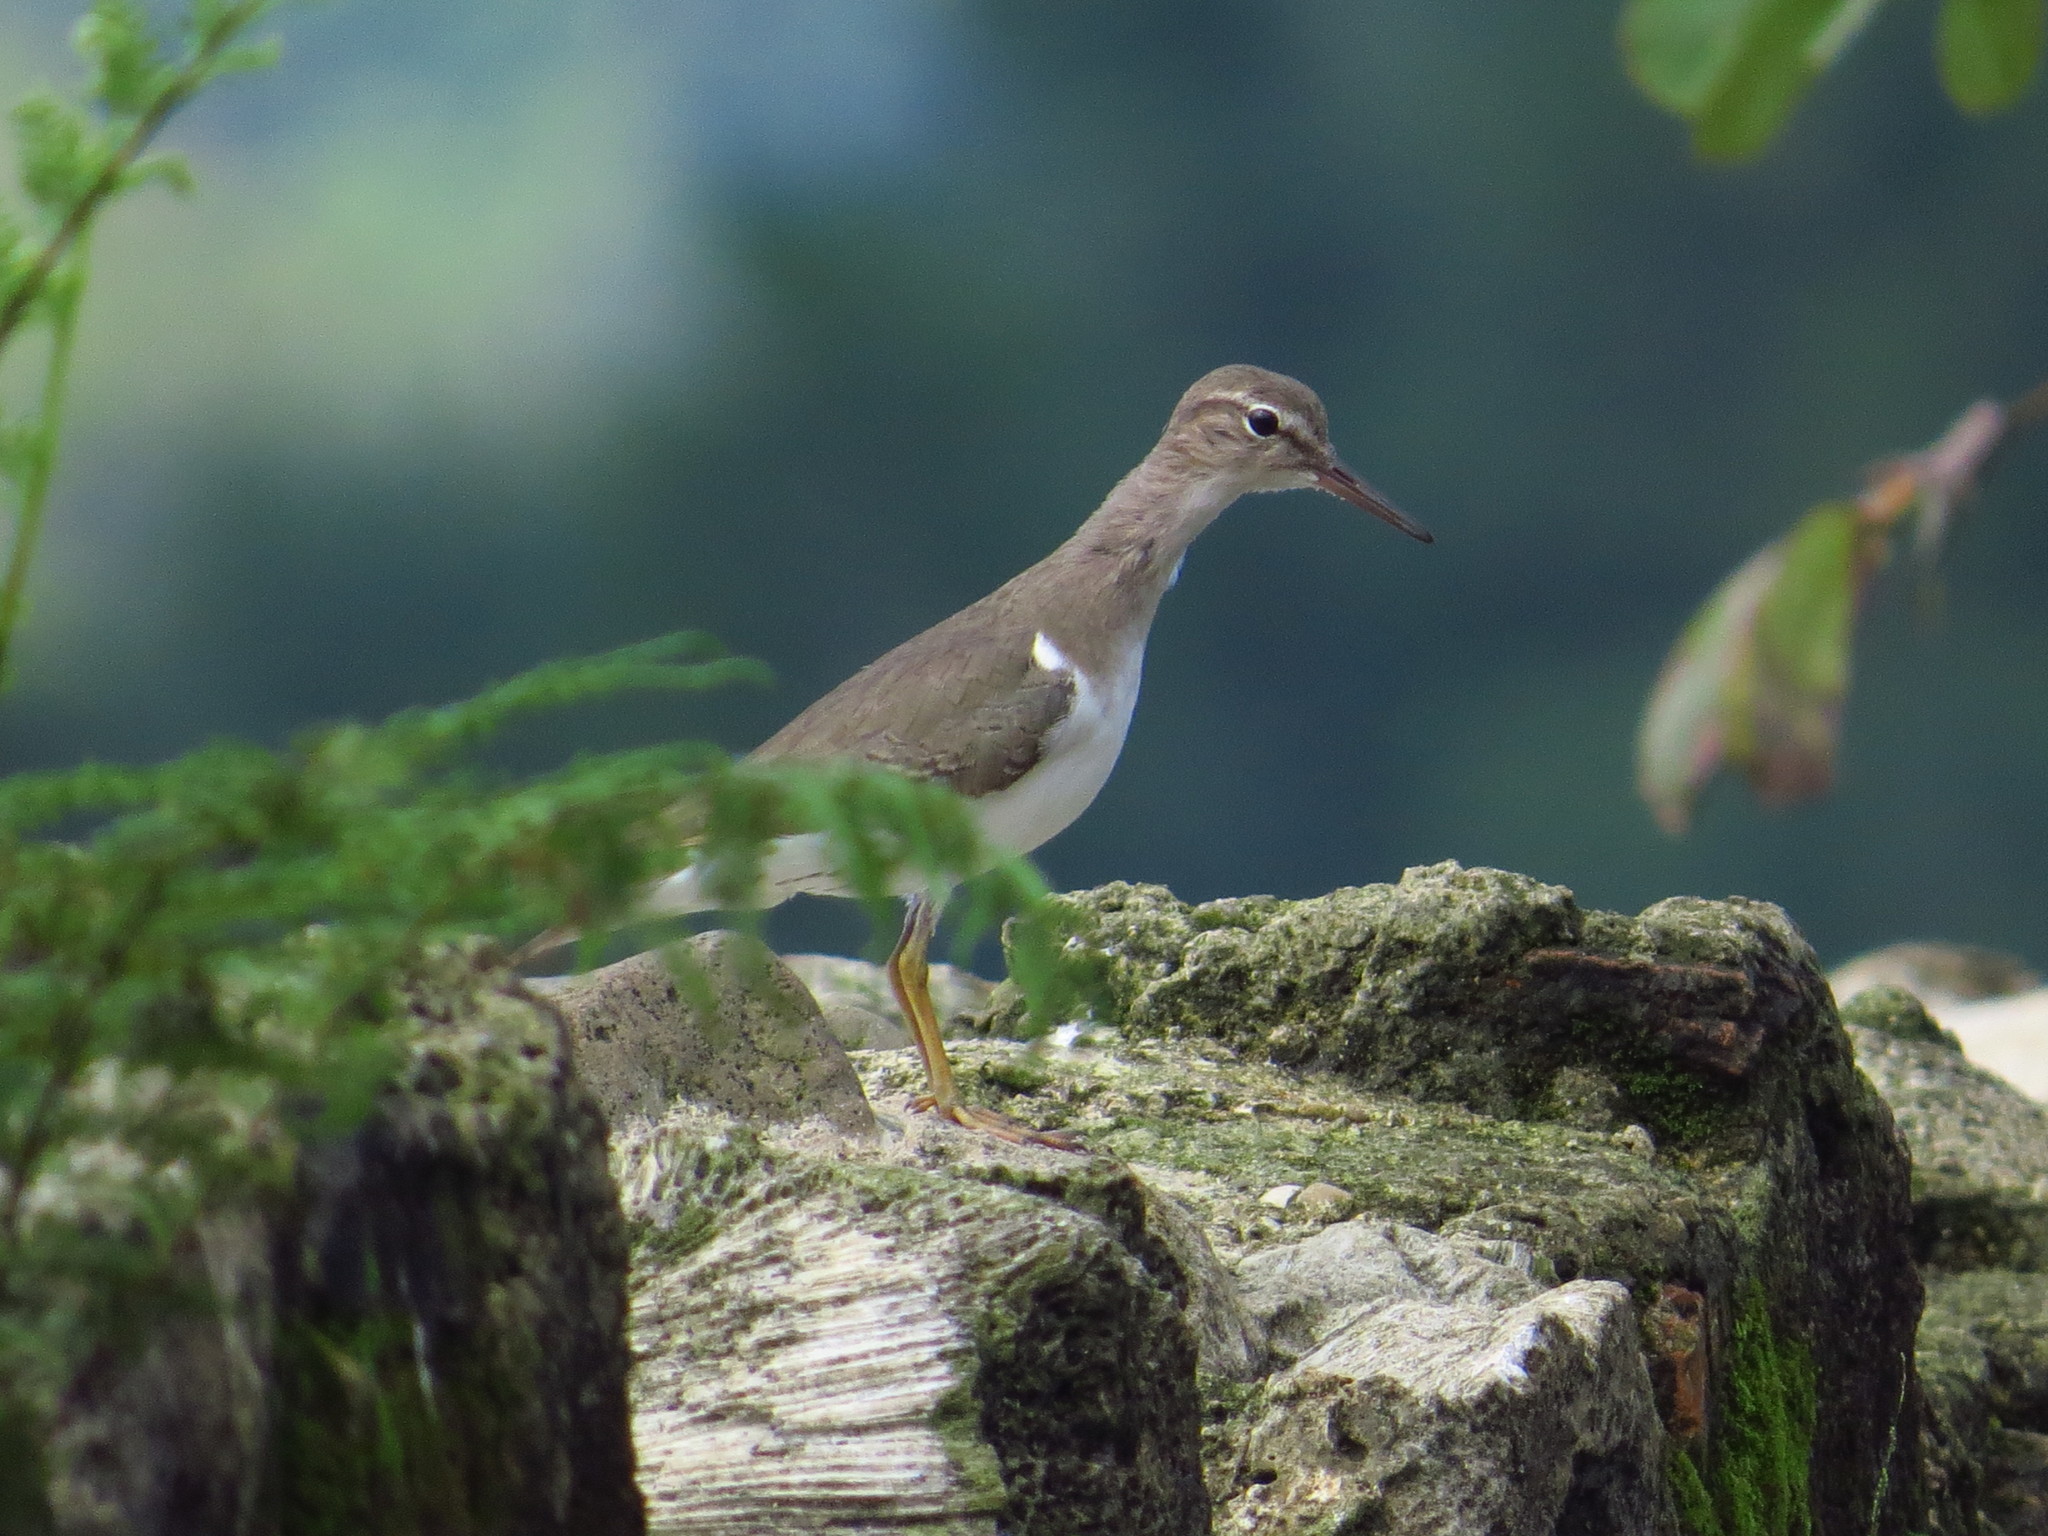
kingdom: Animalia
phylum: Chordata
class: Aves
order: Charadriiformes
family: Scolopacidae
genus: Actitis
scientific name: Actitis macularius
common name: Spotted sandpiper
